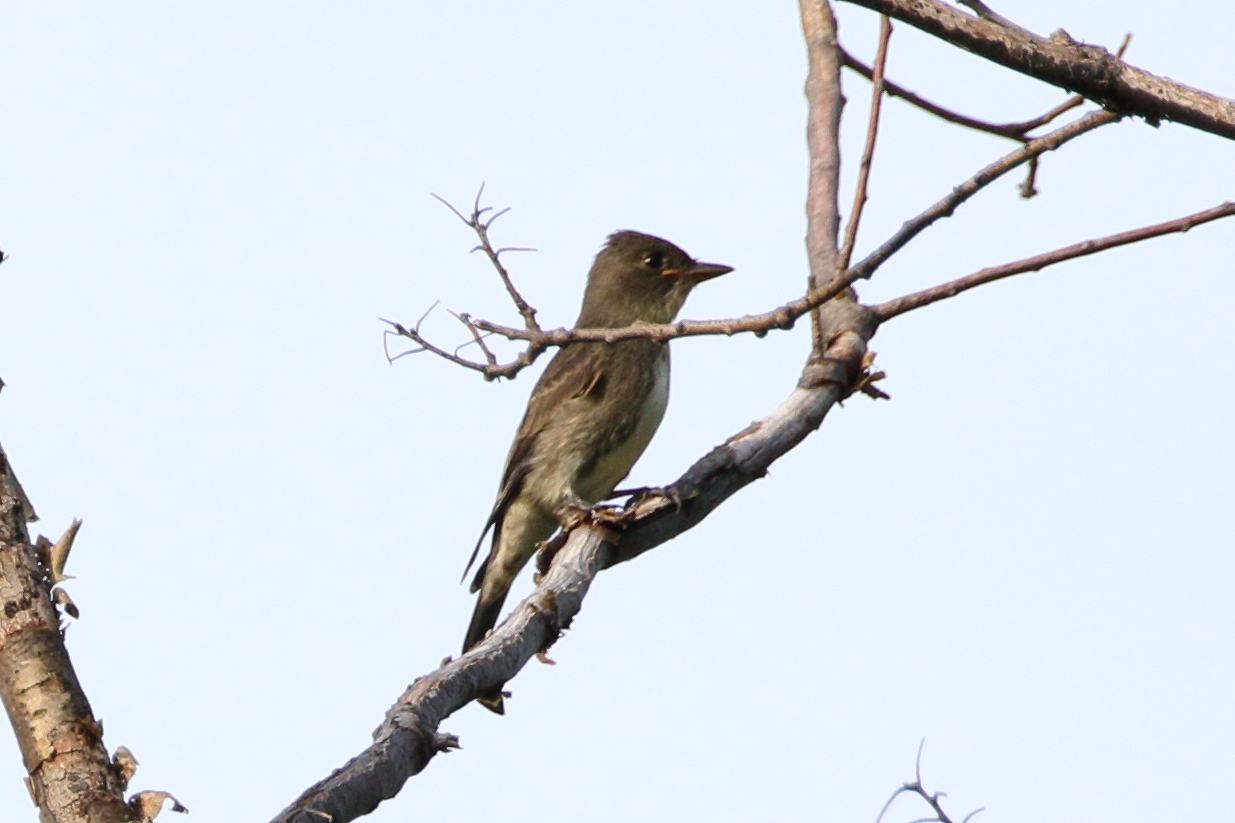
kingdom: Animalia
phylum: Chordata
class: Aves
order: Passeriformes
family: Tyrannidae
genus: Contopus
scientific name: Contopus cooperi
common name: Olive-sided flycatcher
